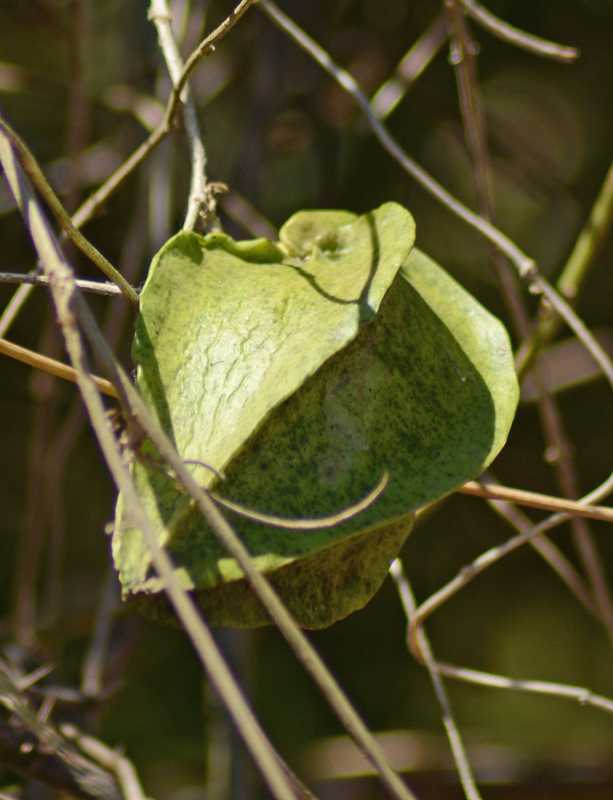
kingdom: Plantae
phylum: Tracheophyta
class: Magnoliopsida
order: Gentianales
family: Apocynaceae
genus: Gonolobus
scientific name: Gonolobus naturalistae
